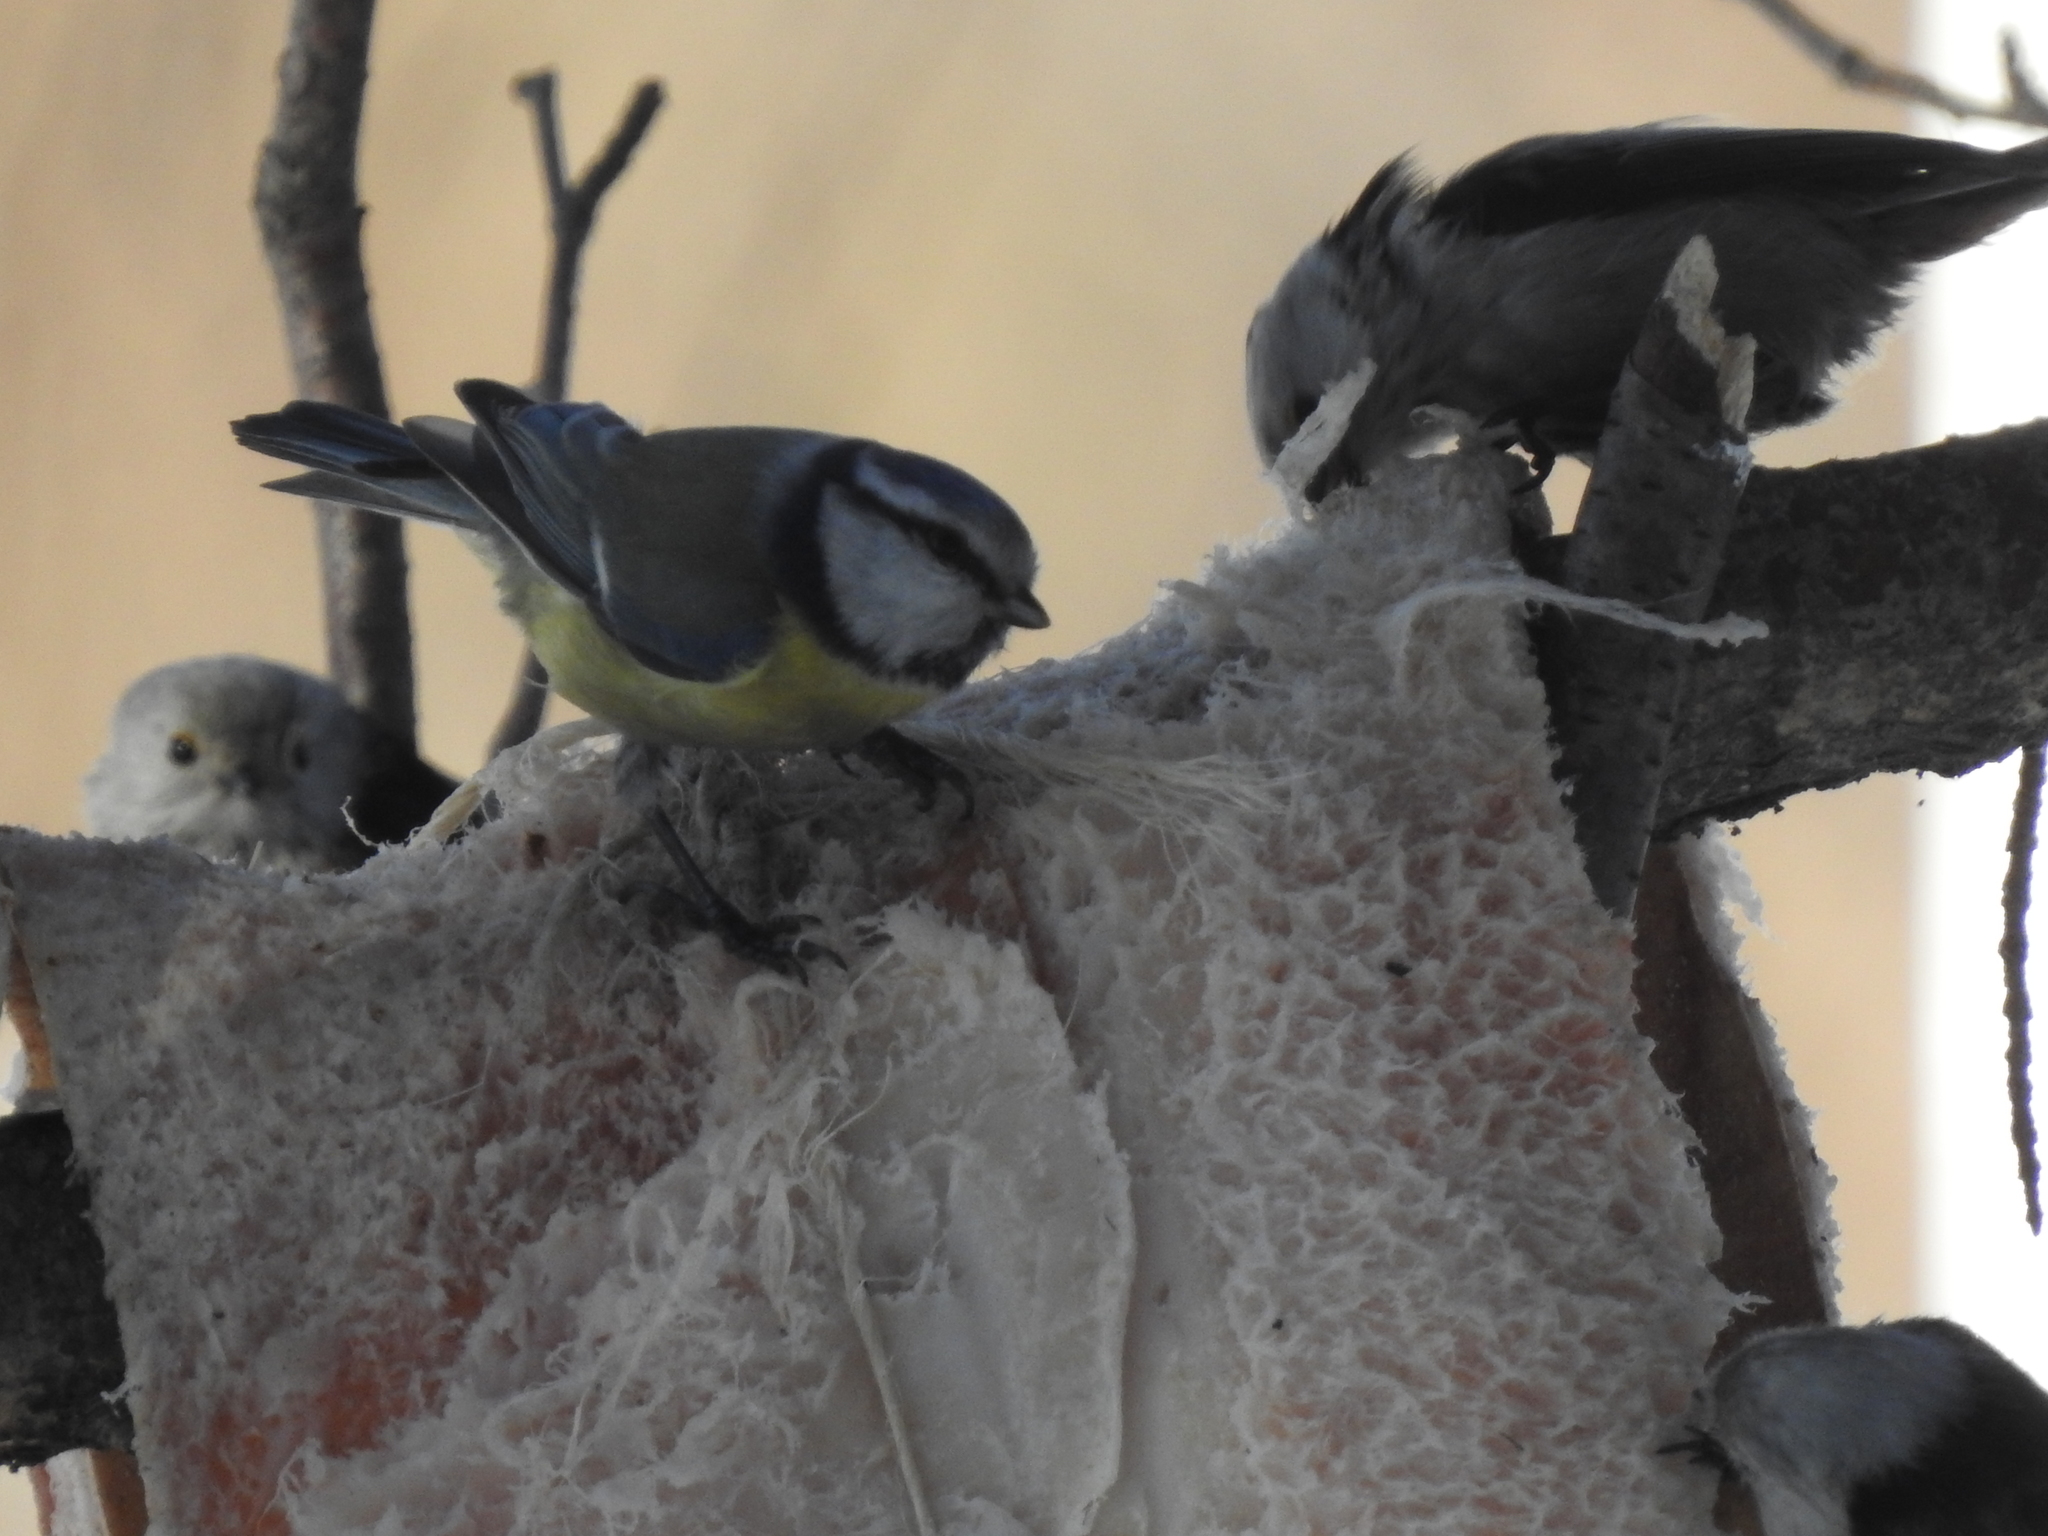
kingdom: Animalia
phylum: Chordata
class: Aves
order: Passeriformes
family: Paridae
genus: Cyanistes
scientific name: Cyanistes caeruleus
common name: Eurasian blue tit
